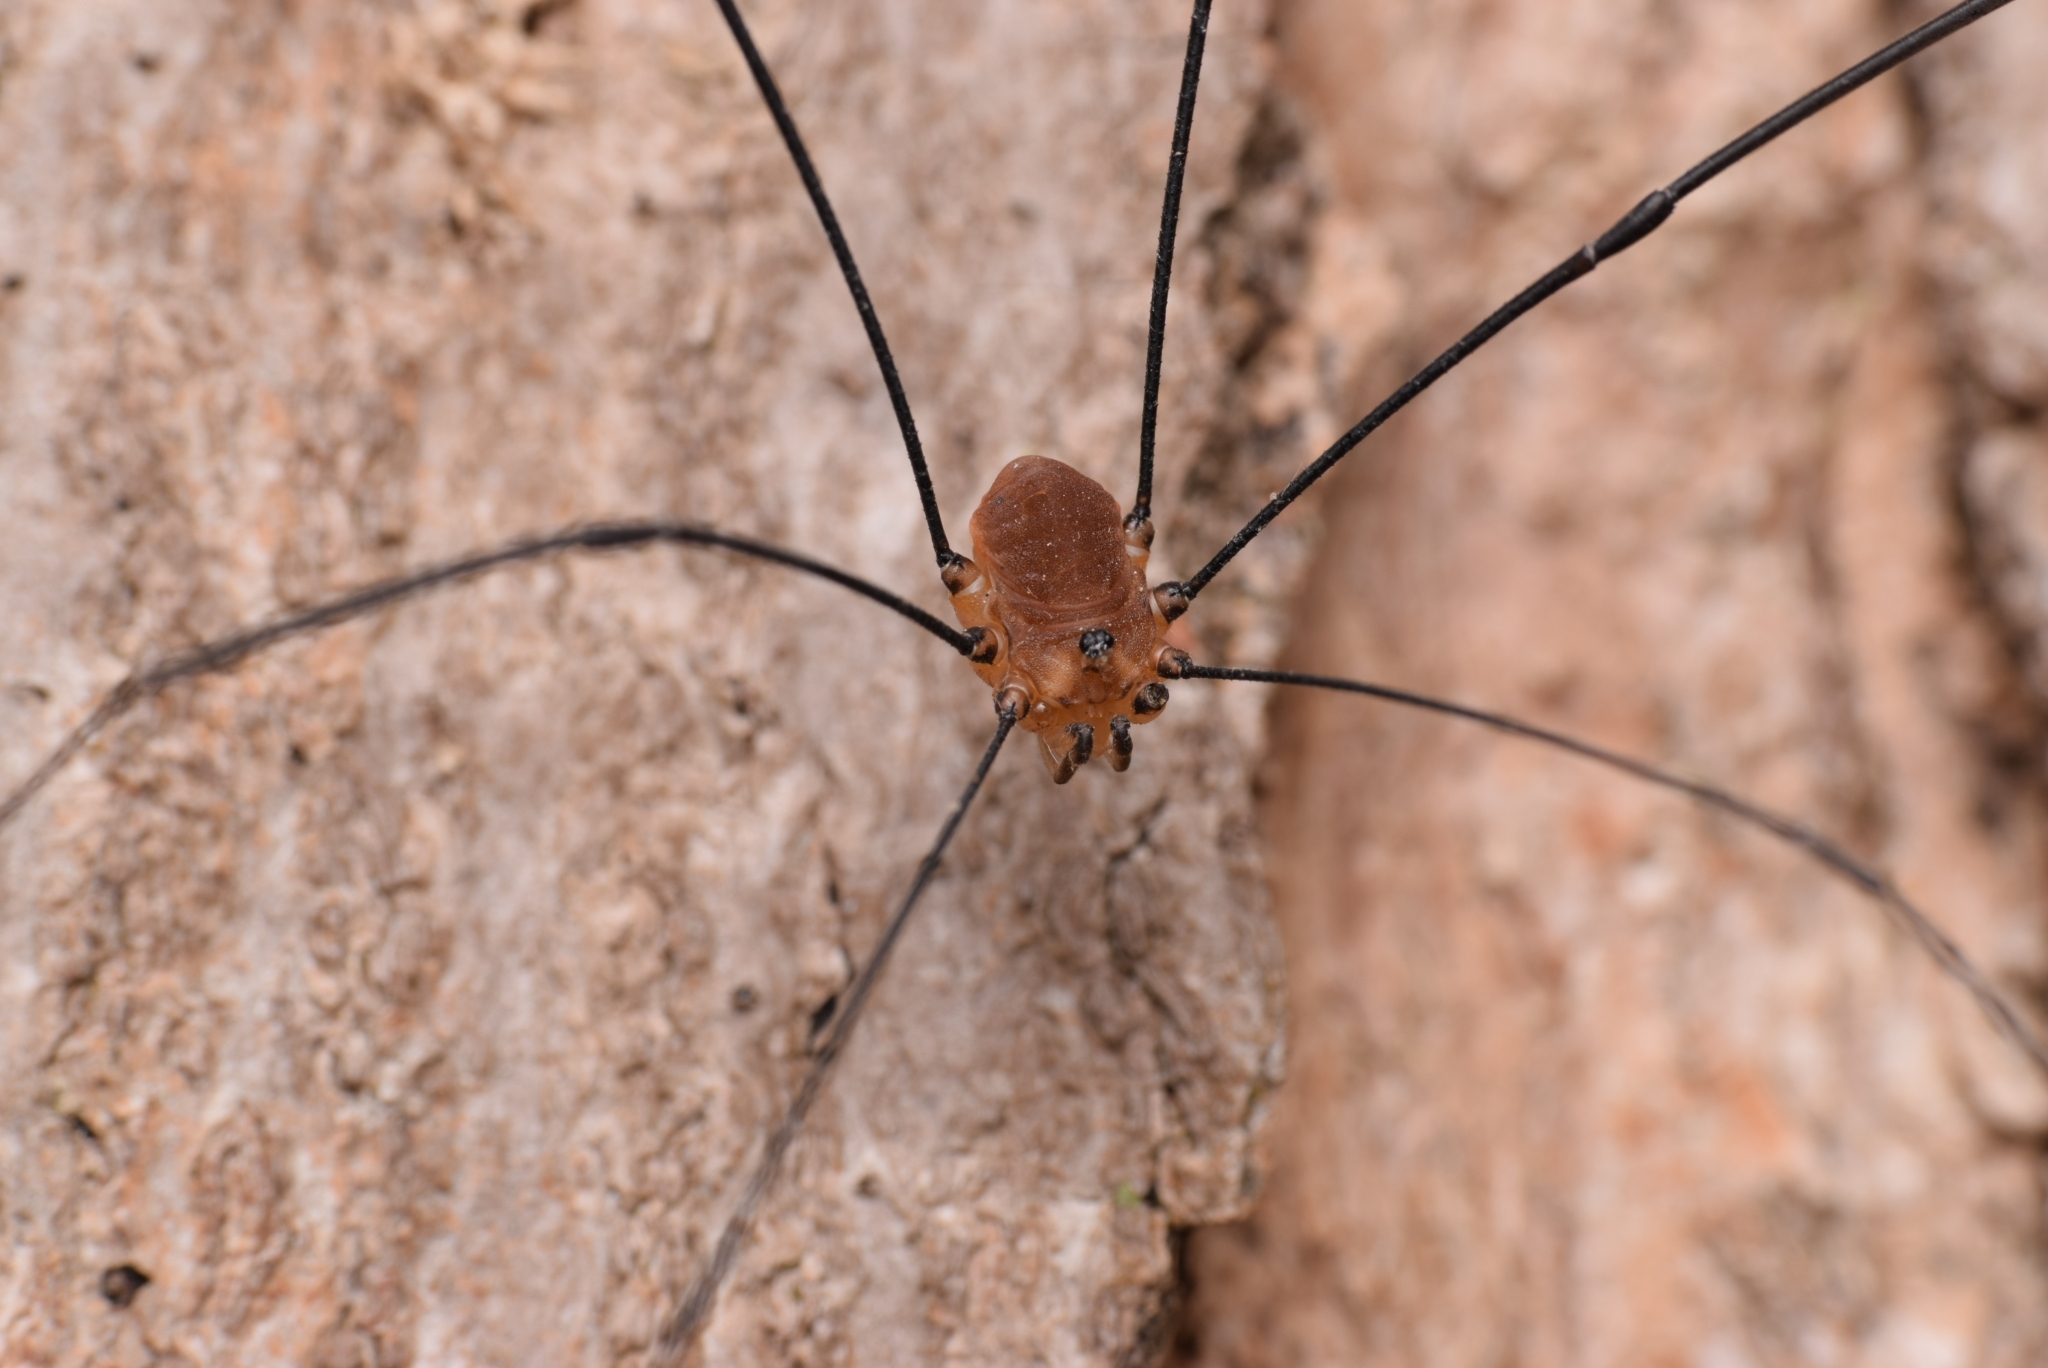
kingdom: Animalia
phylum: Arthropoda
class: Arachnida
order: Opiliones
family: Sclerosomatidae
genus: Leiobunum
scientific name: Leiobunum rotundum
